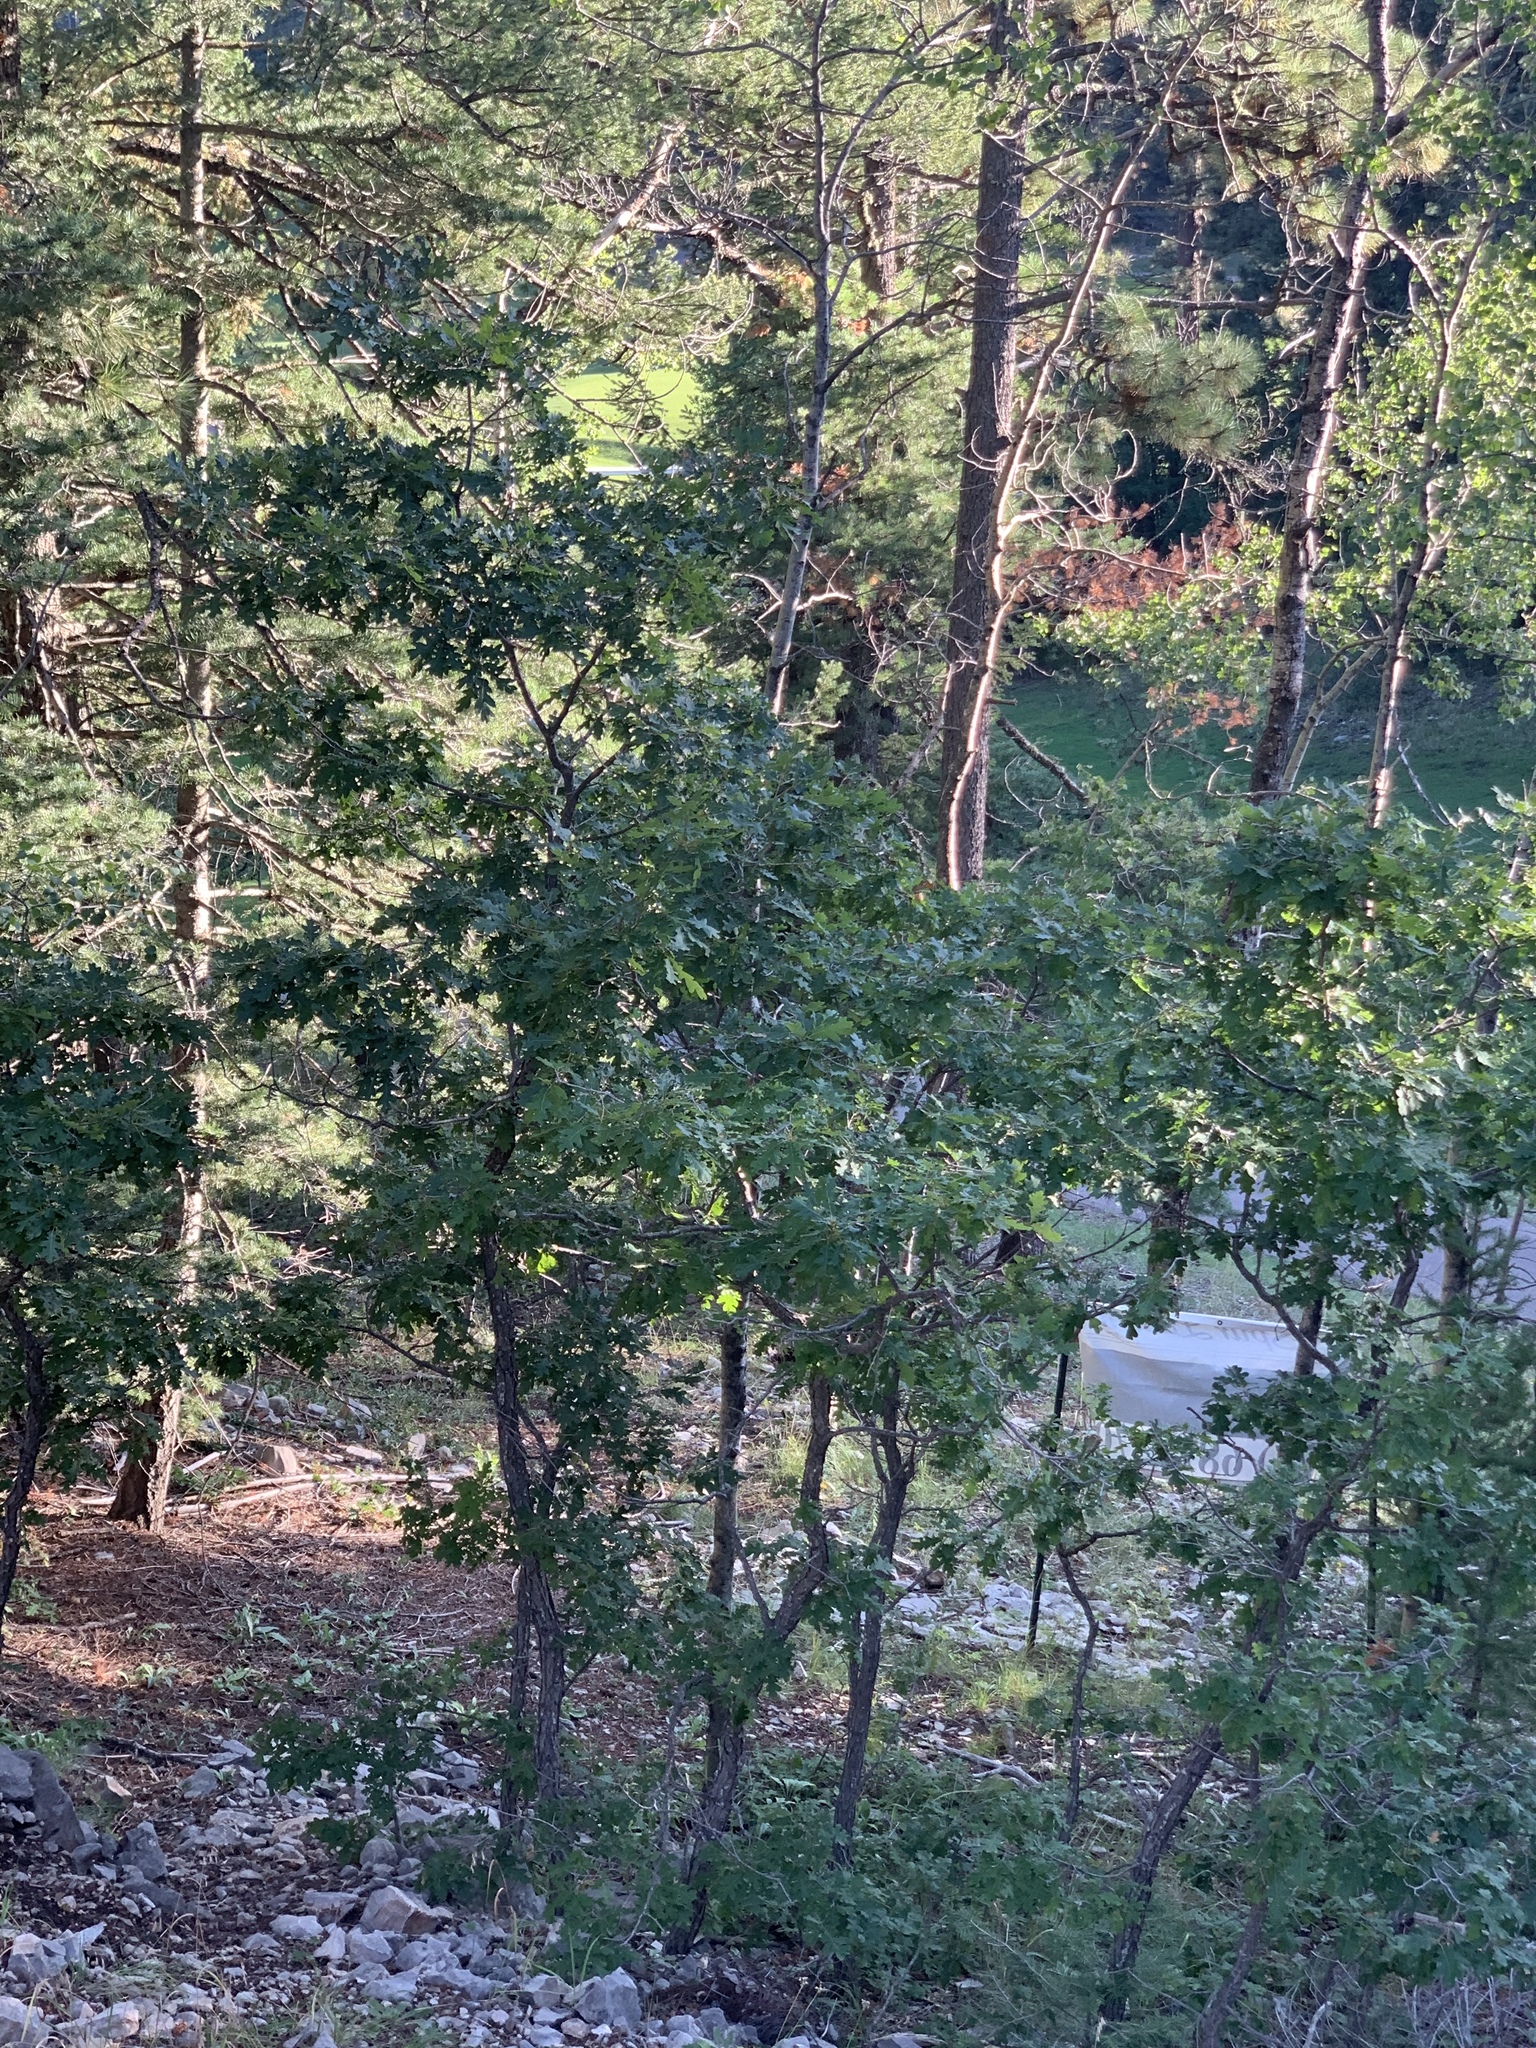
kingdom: Plantae
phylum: Tracheophyta
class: Magnoliopsida
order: Fagales
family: Fagaceae
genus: Quercus
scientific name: Quercus gambelii
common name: Gambel oak
